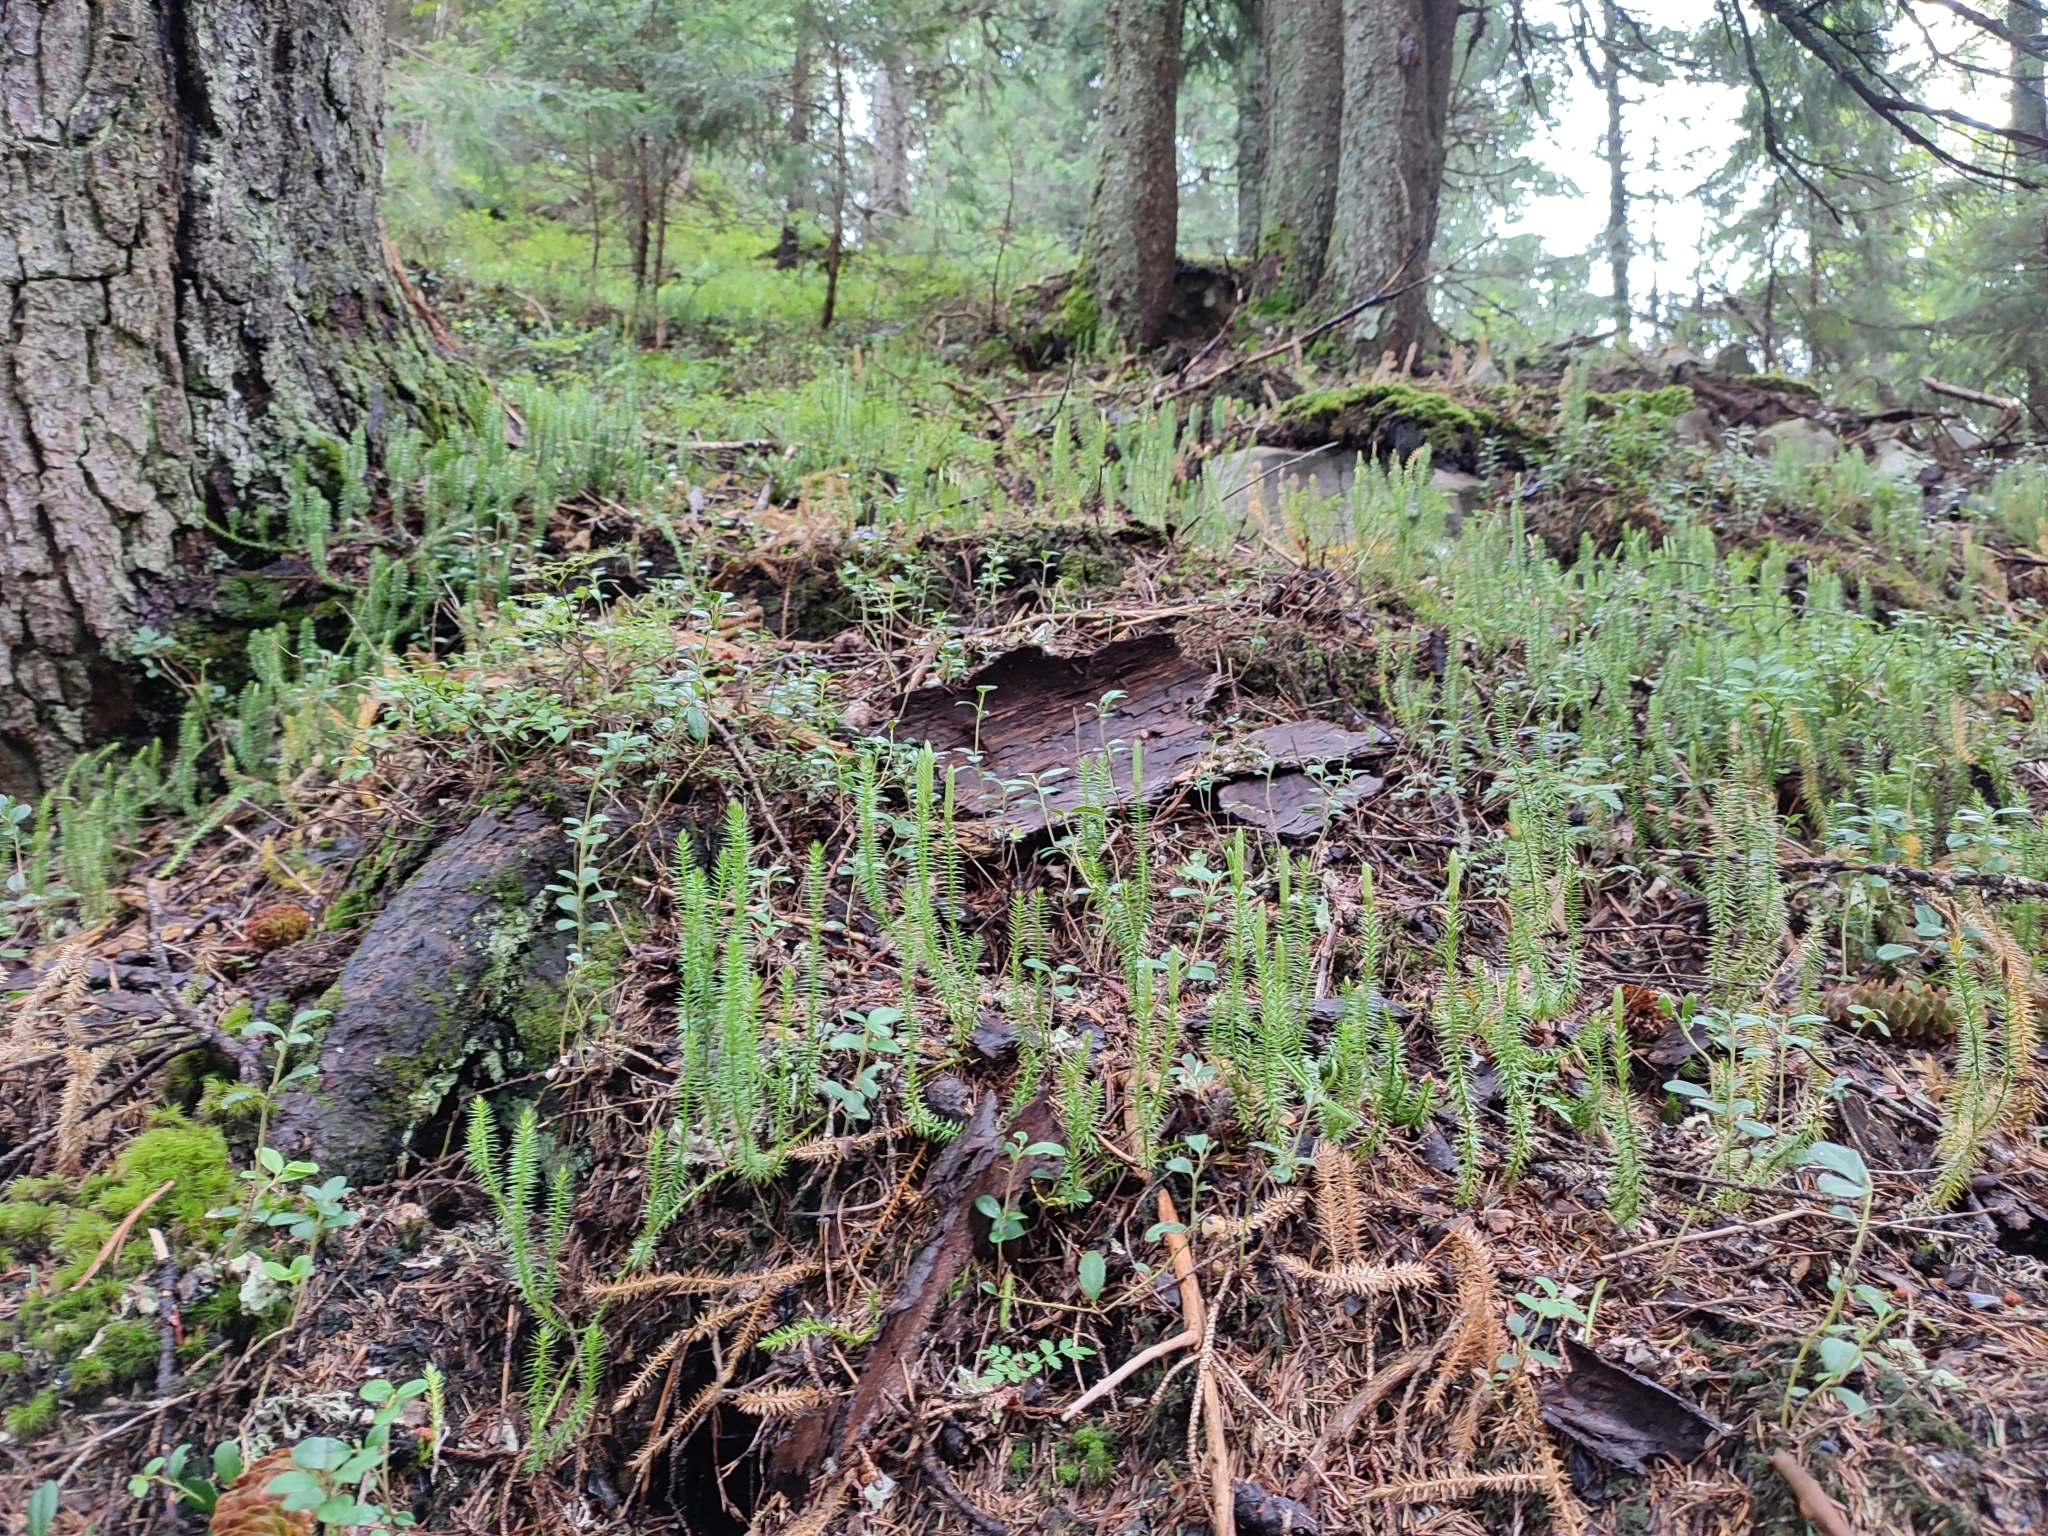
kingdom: Plantae
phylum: Tracheophyta
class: Lycopodiopsida
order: Lycopodiales
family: Lycopodiaceae
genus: Spinulum
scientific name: Spinulum annotinum
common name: Interrupted club-moss
